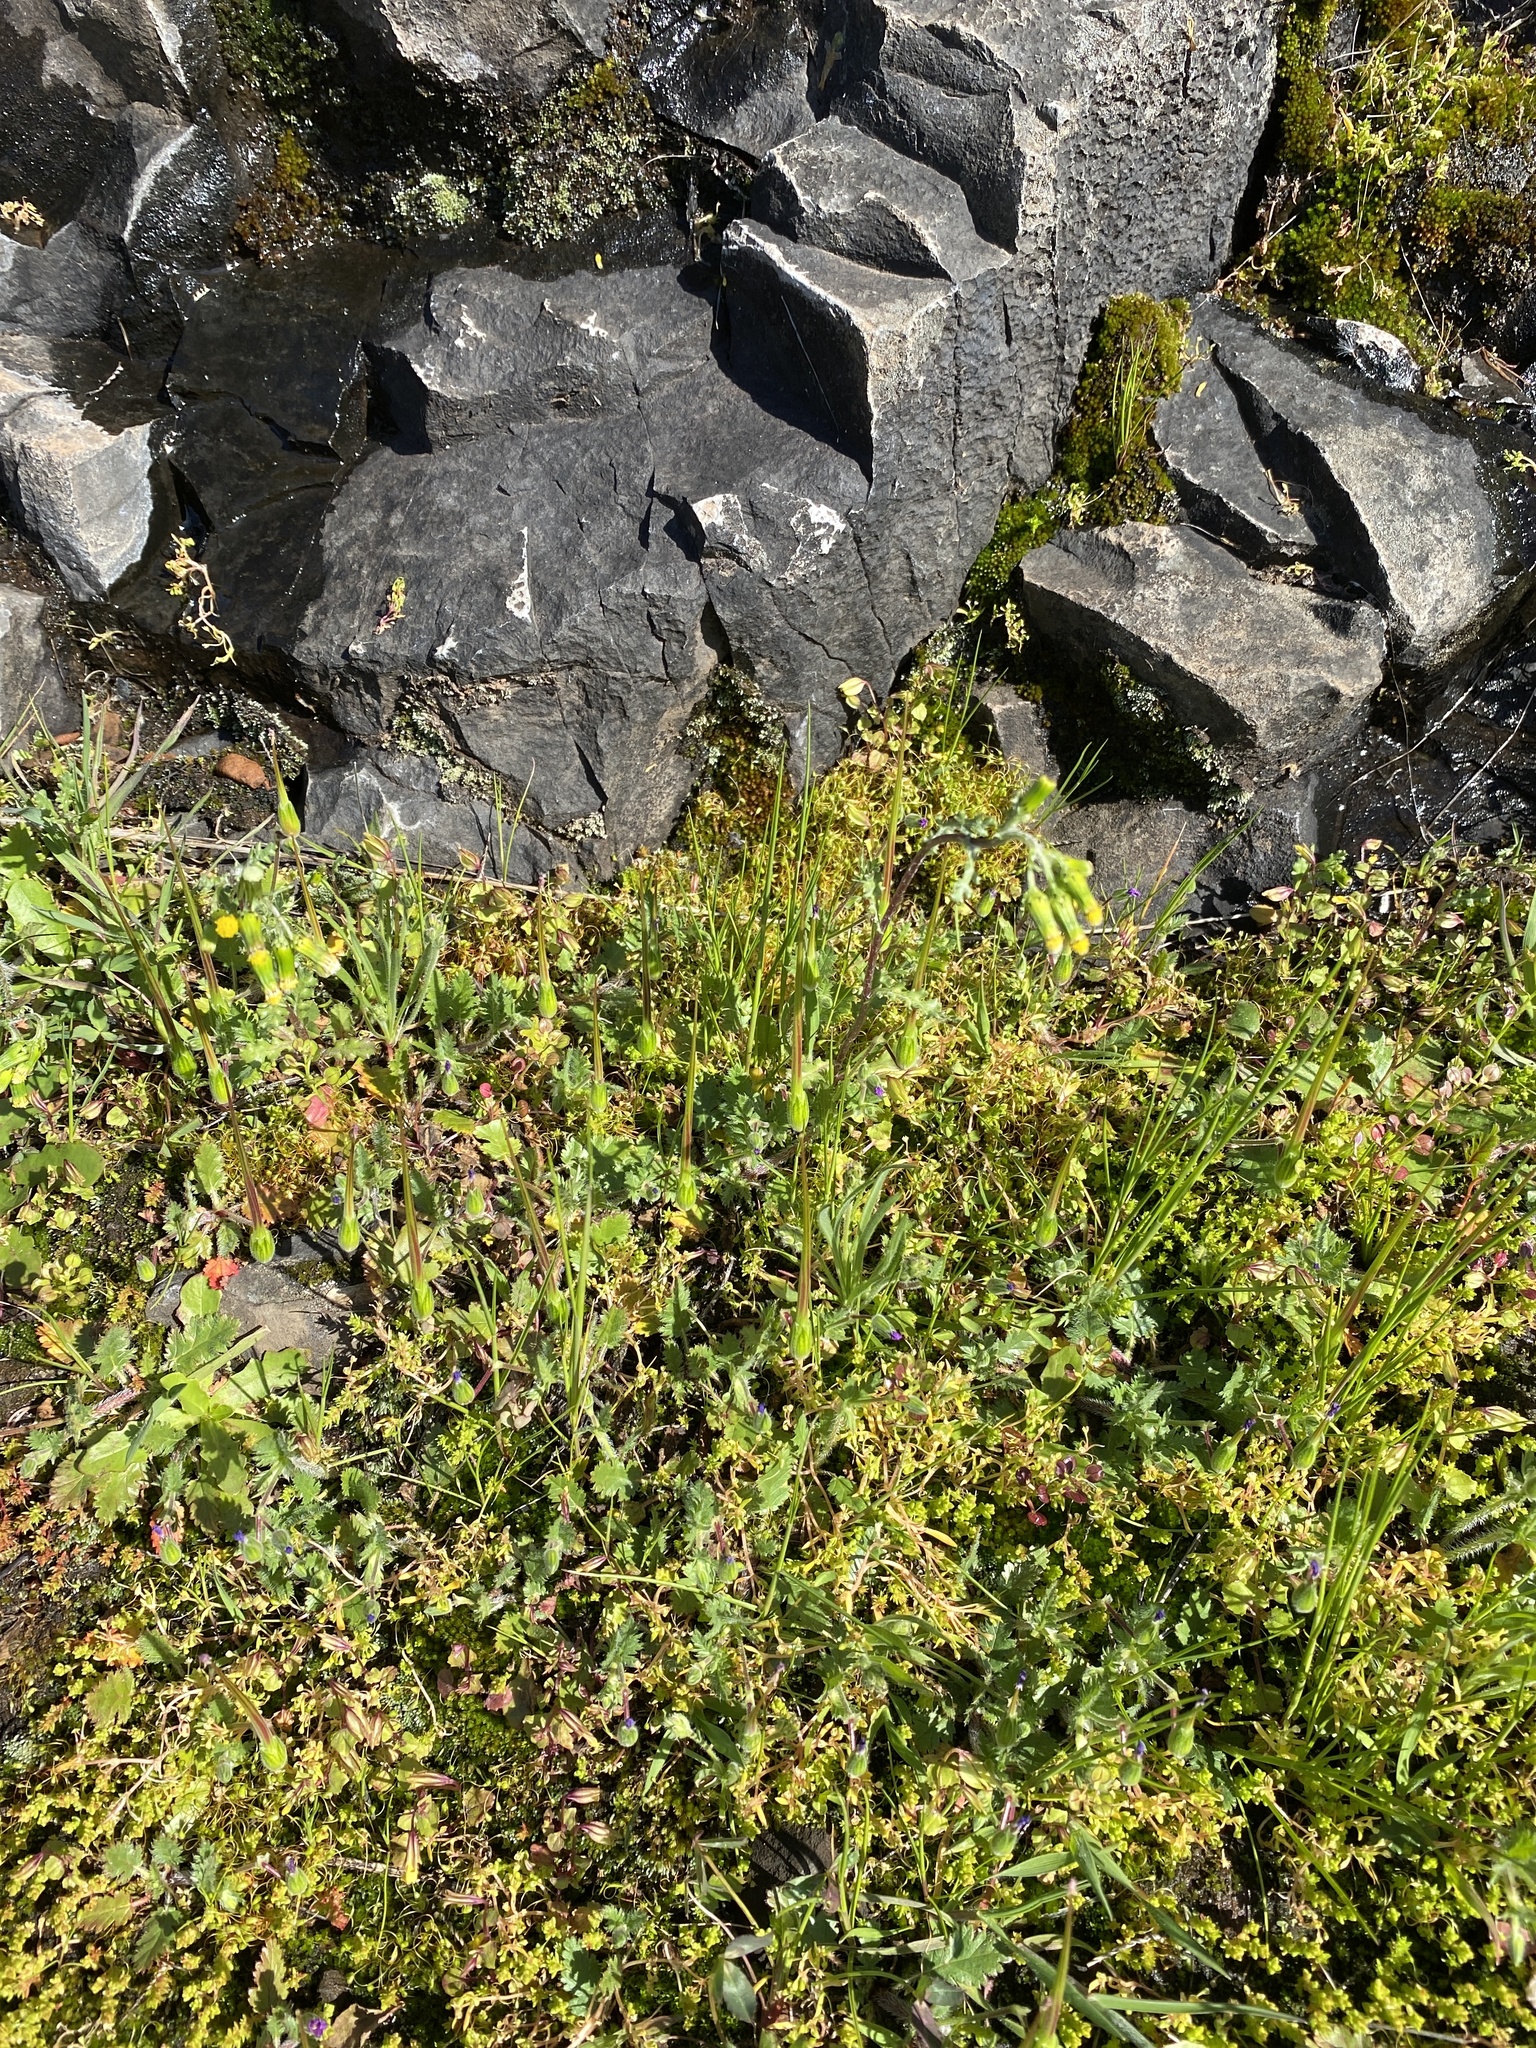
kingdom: Plantae
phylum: Tracheophyta
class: Magnoliopsida
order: Geraniales
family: Geraniaceae
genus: Erodium
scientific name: Erodium cicutarium
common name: Common stork's-bill
